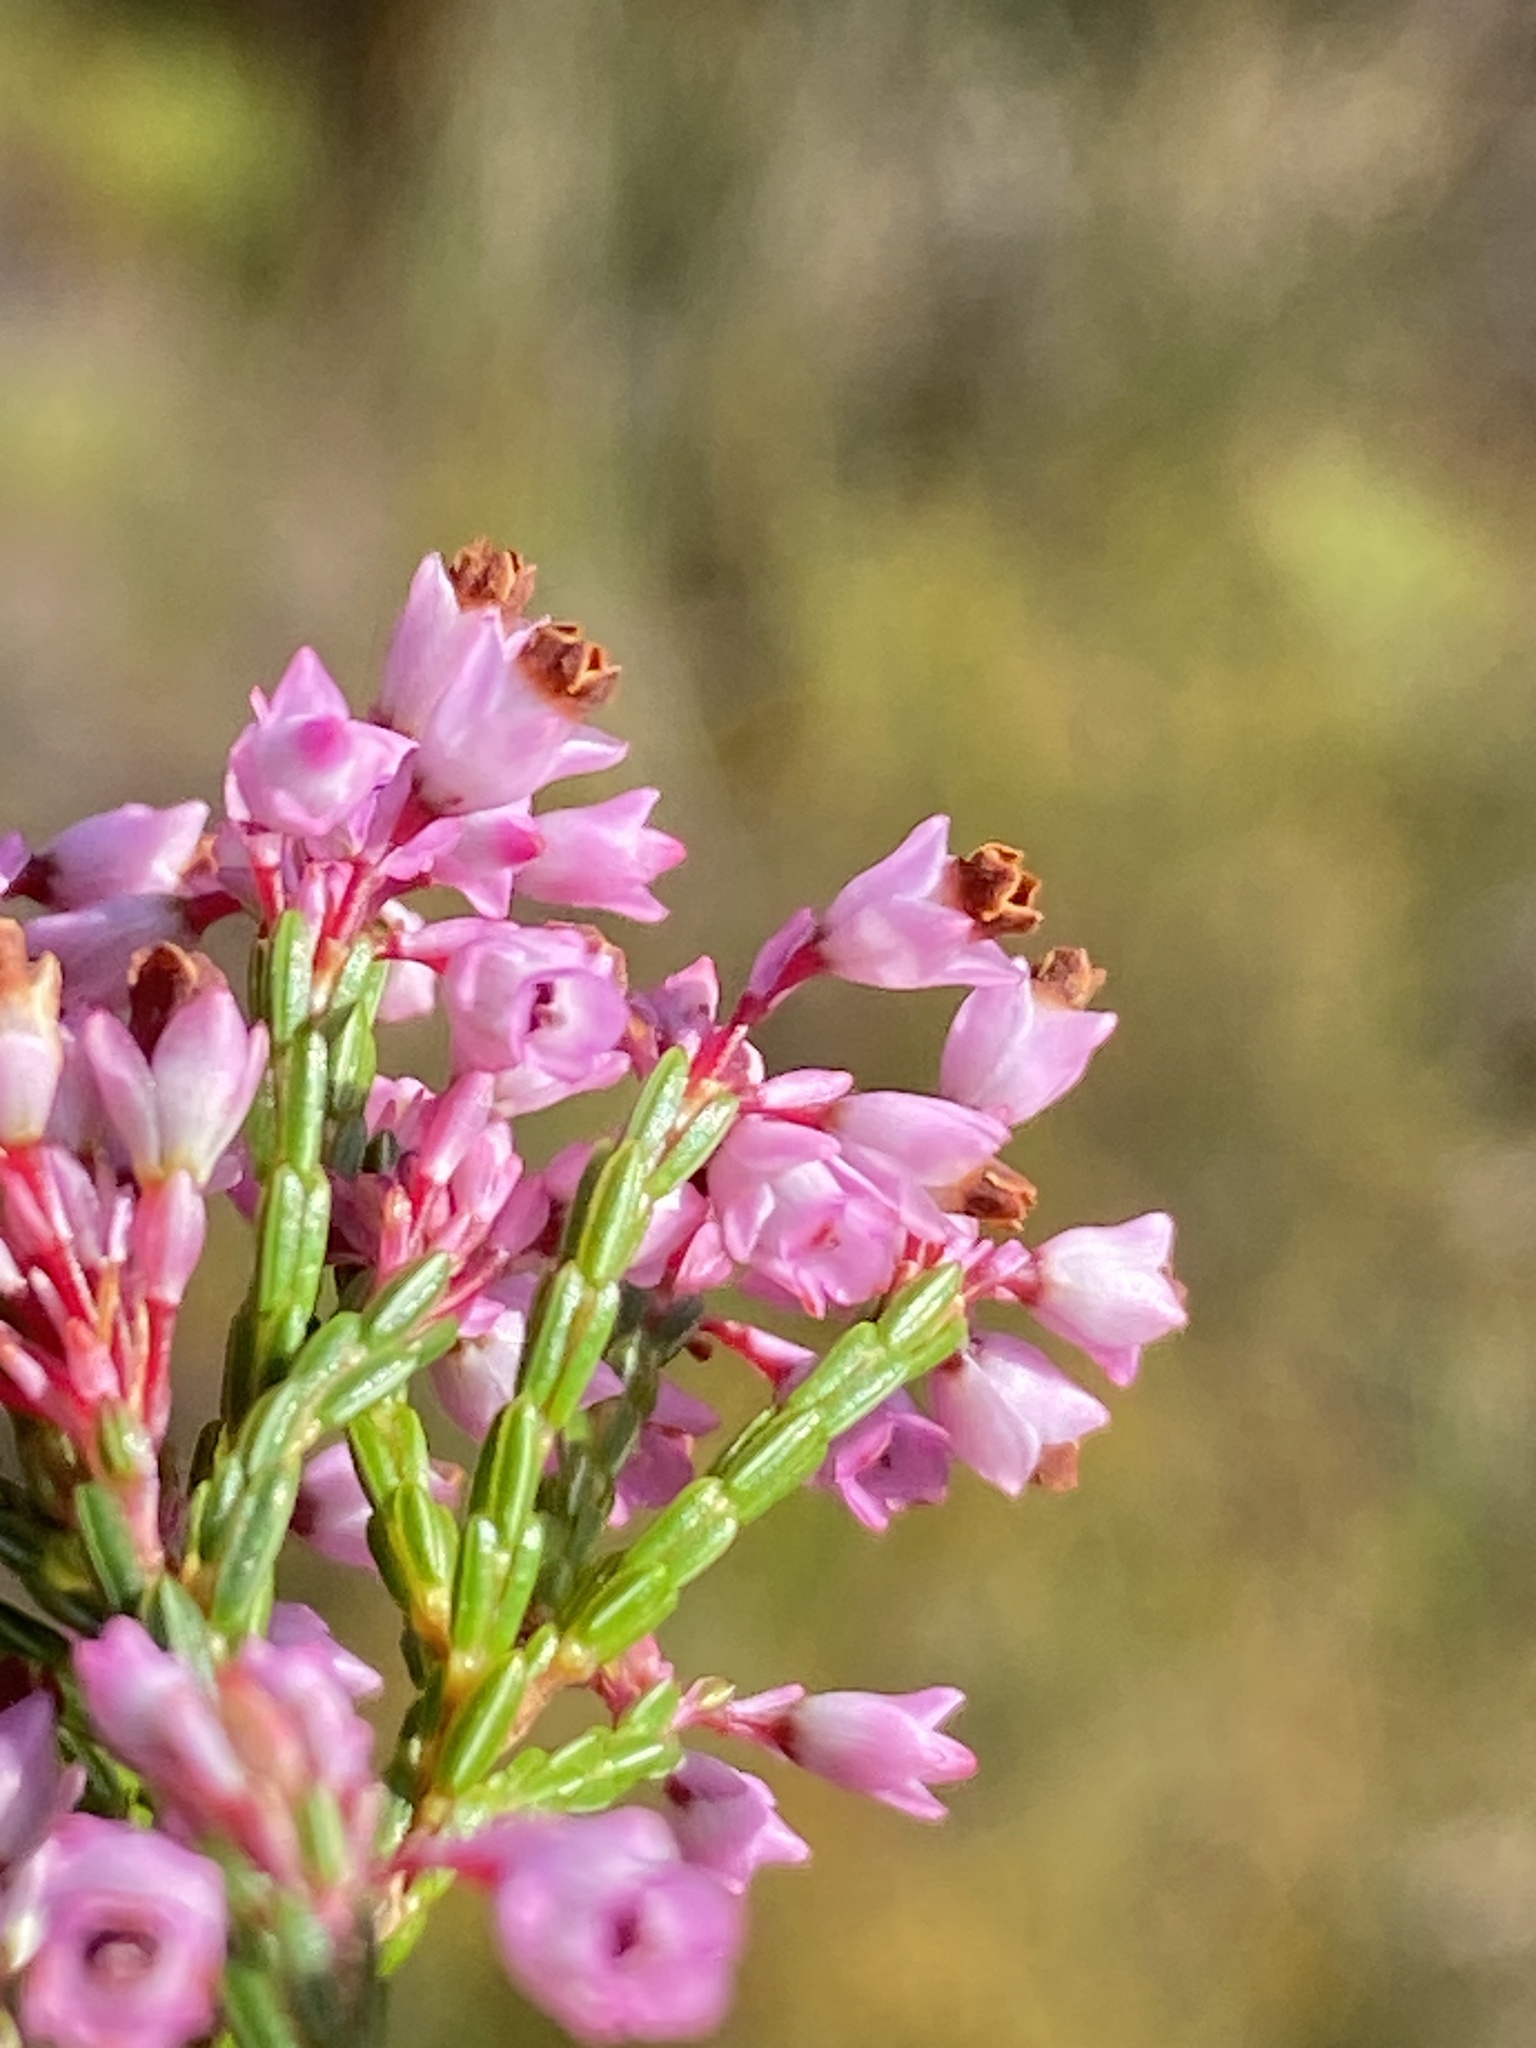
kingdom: Plantae
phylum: Tracheophyta
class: Magnoliopsida
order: Ericales
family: Ericaceae
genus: Erica
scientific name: Erica corifolia
